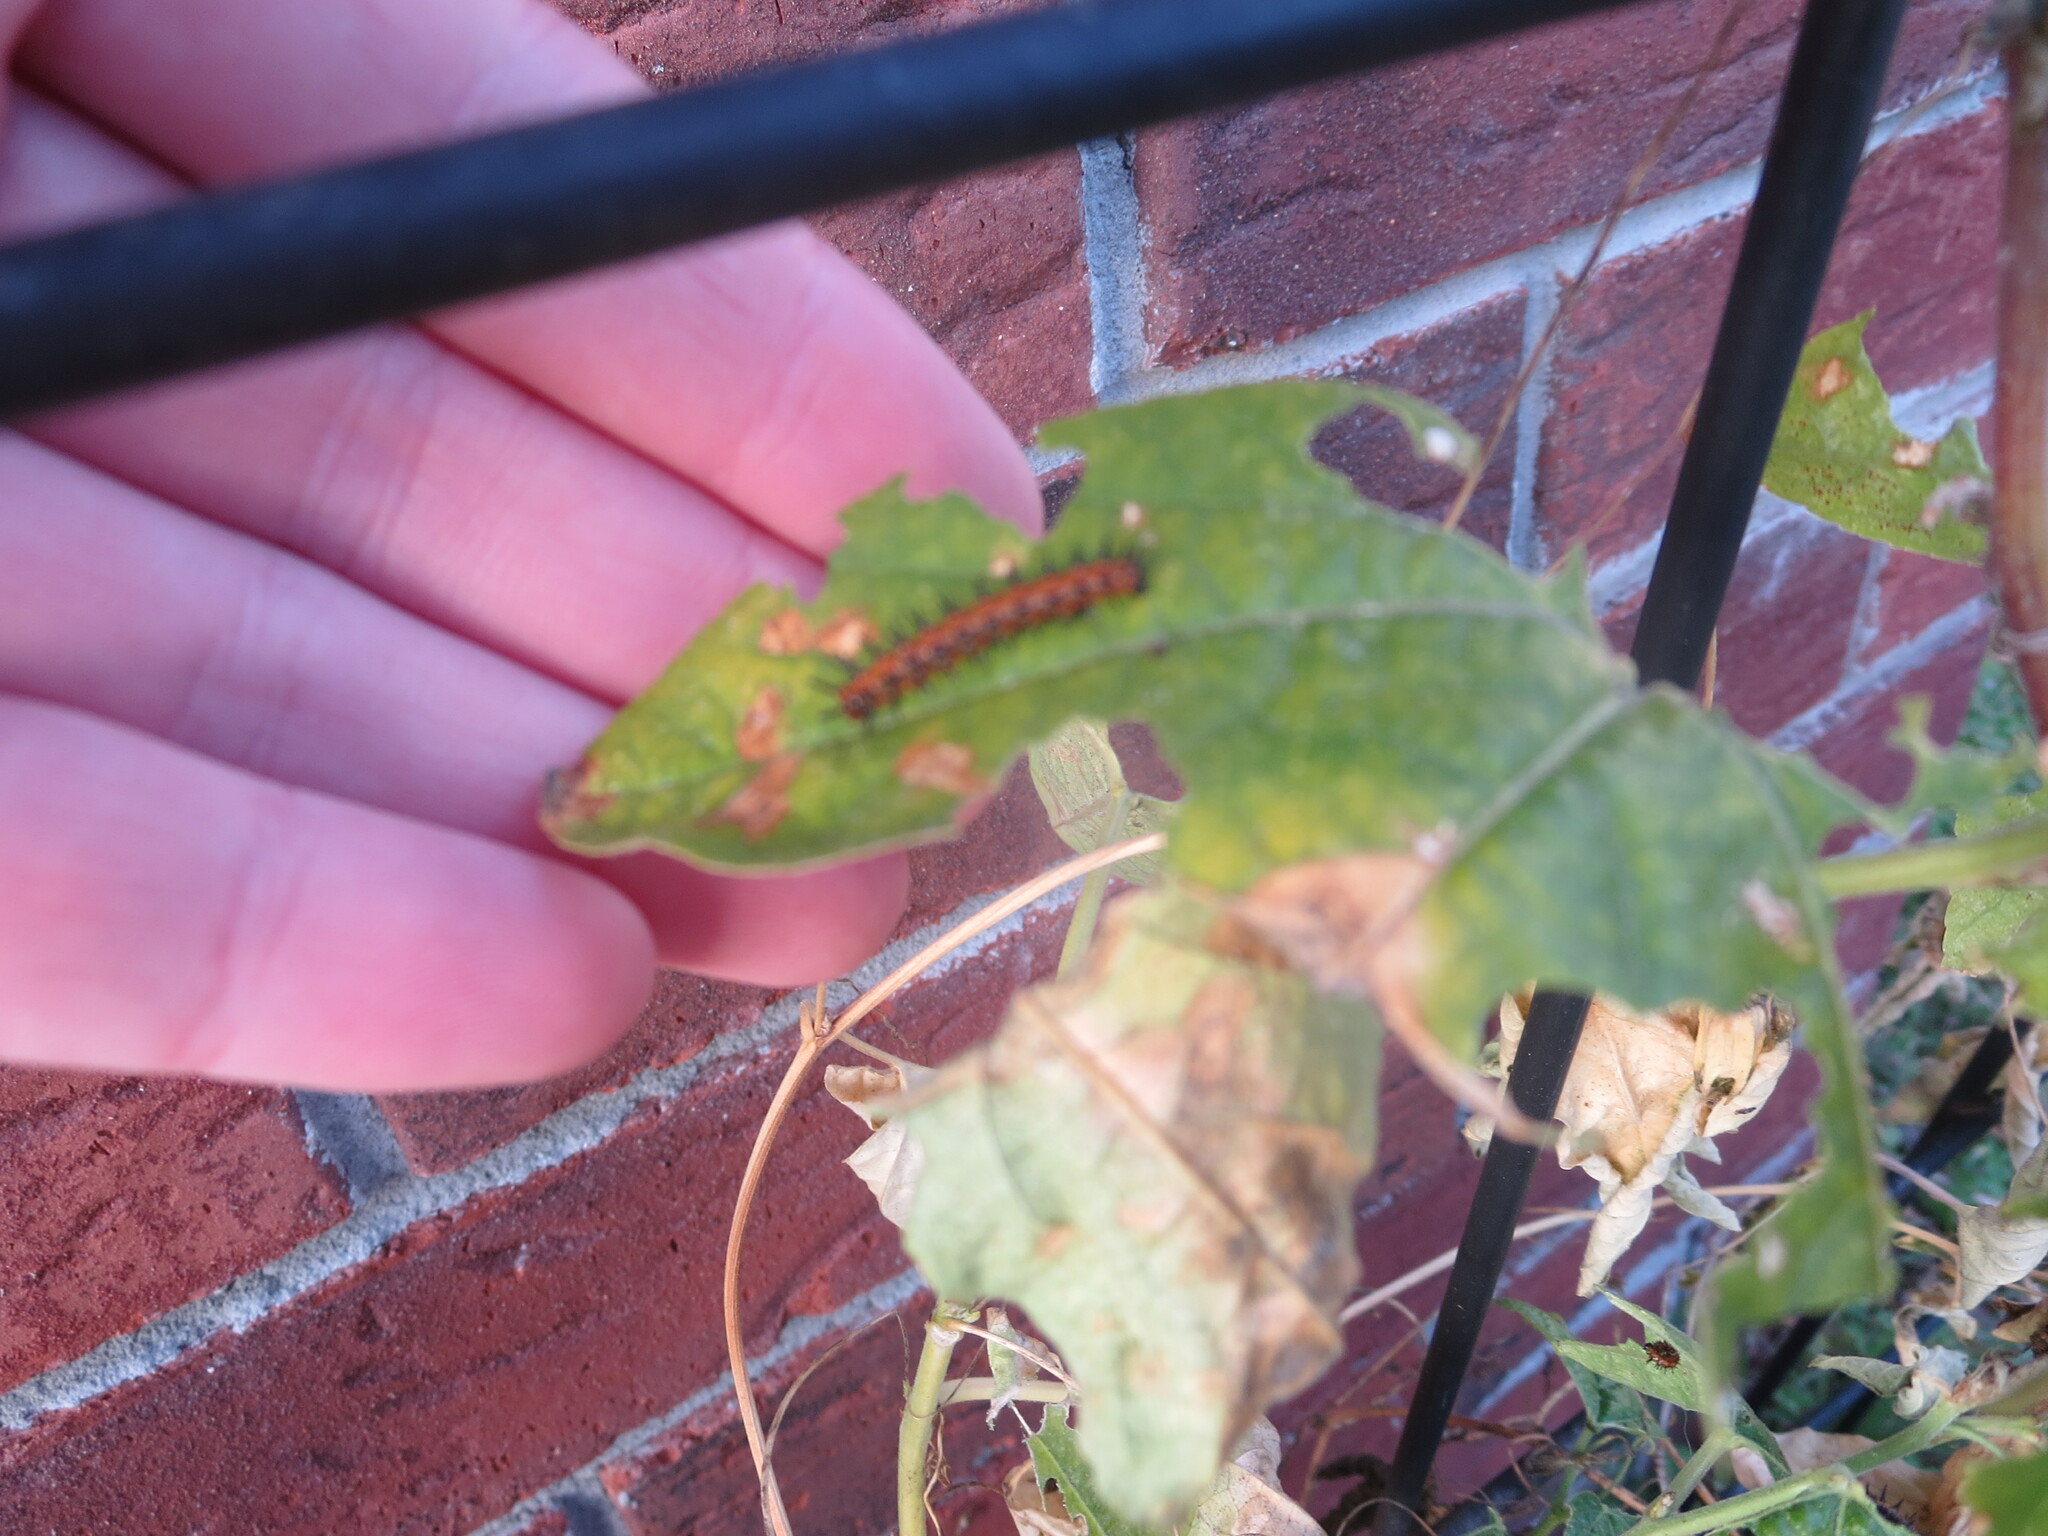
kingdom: Animalia
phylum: Arthropoda
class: Insecta
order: Lepidoptera
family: Nymphalidae
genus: Dione
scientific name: Dione vanillae
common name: Gulf fritillary
